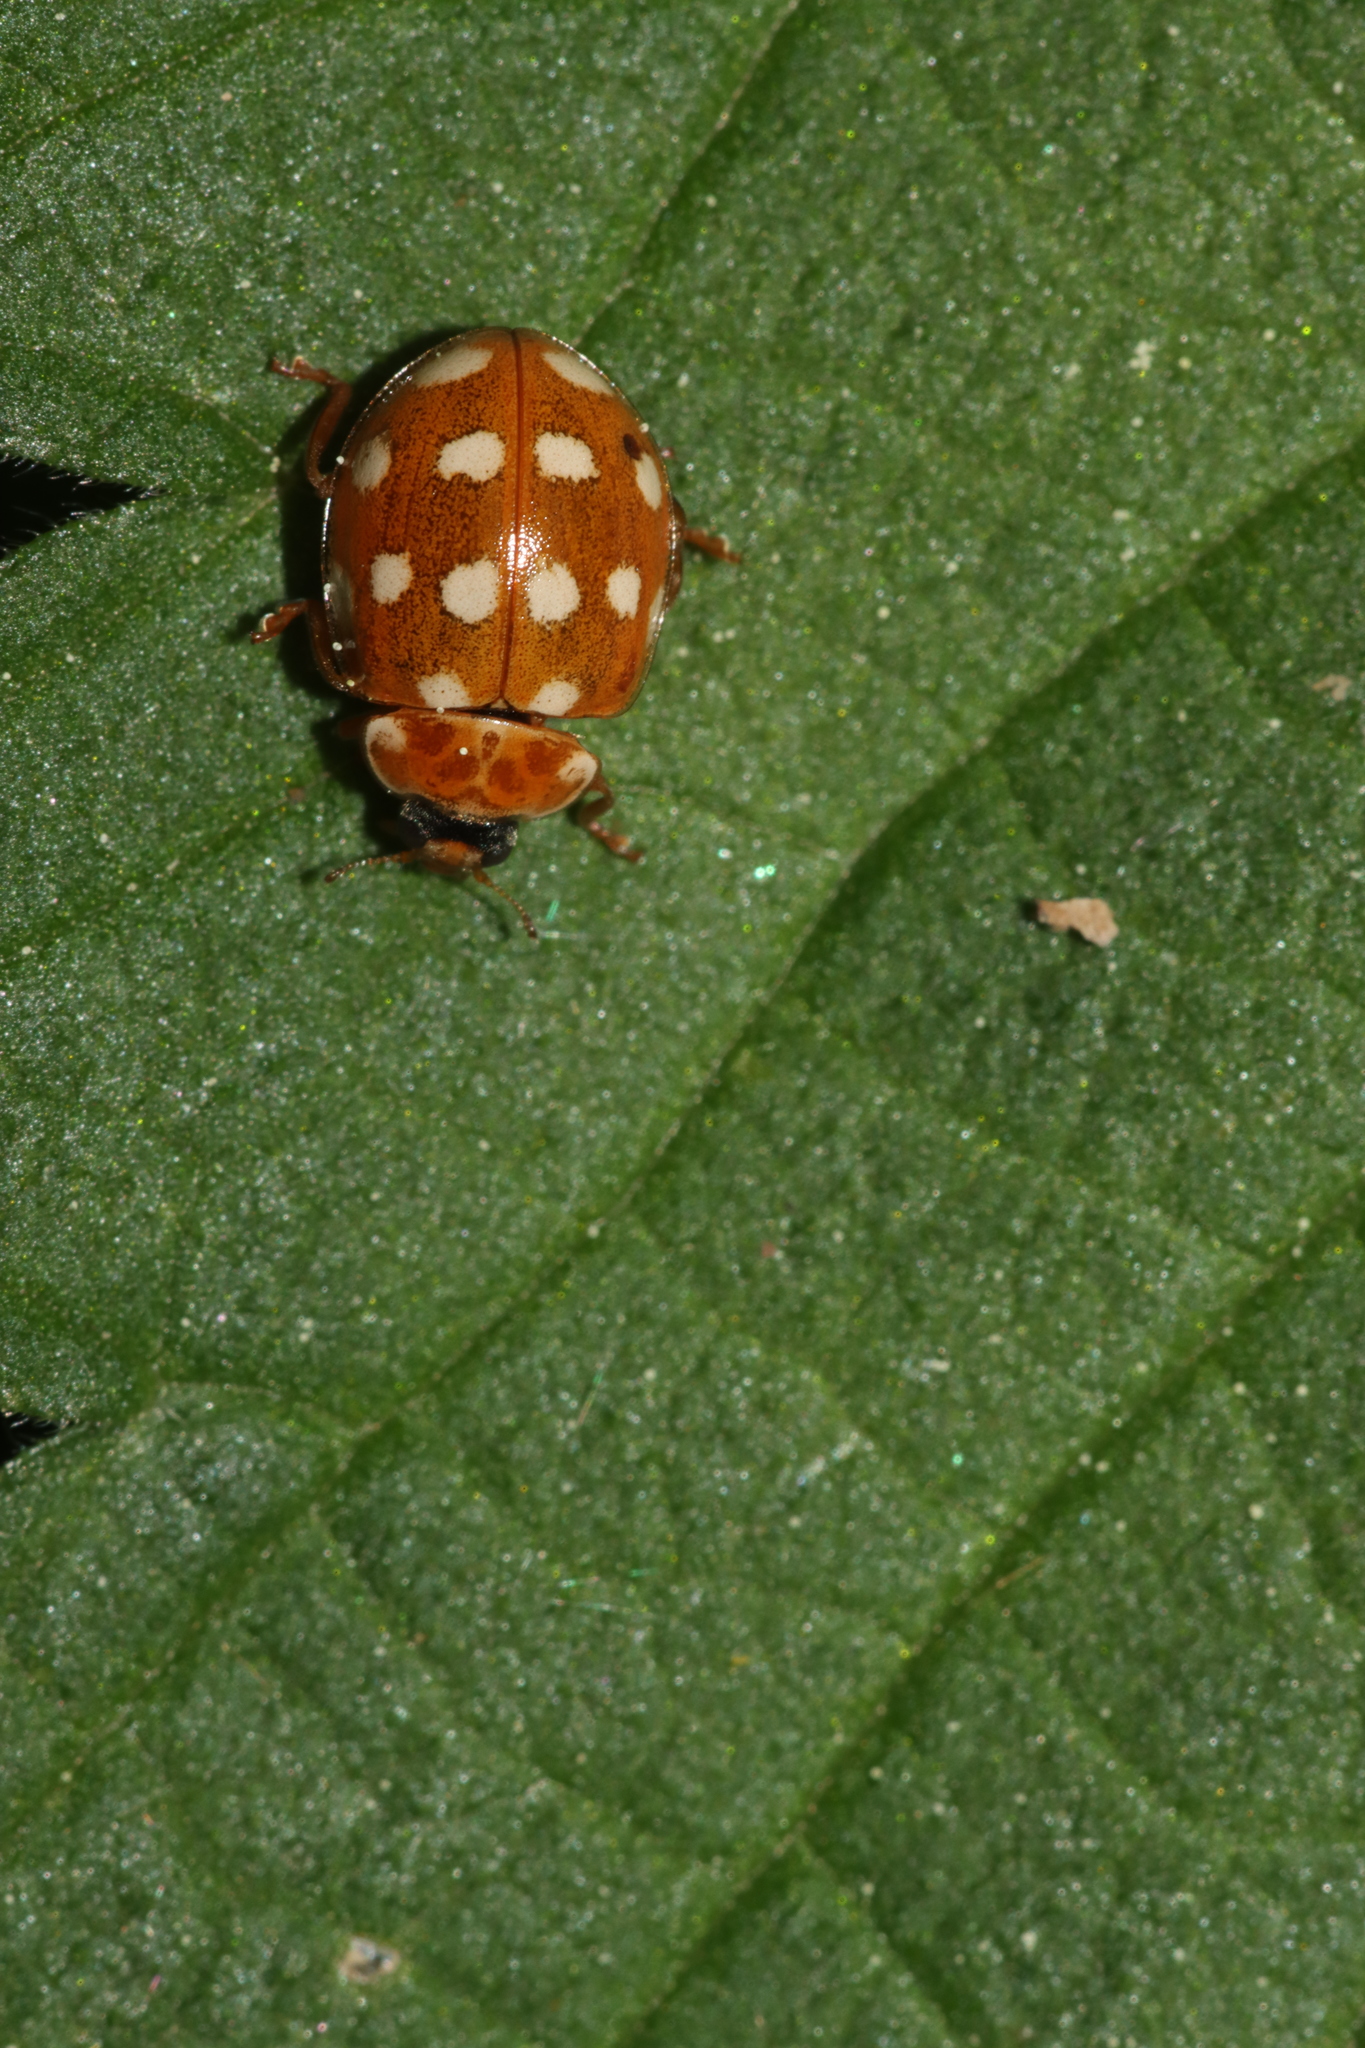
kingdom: Animalia
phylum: Arthropoda
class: Insecta
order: Coleoptera
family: Coccinellidae
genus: Calvia
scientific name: Calvia quatuordecimguttata
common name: Cream-spot ladybird
